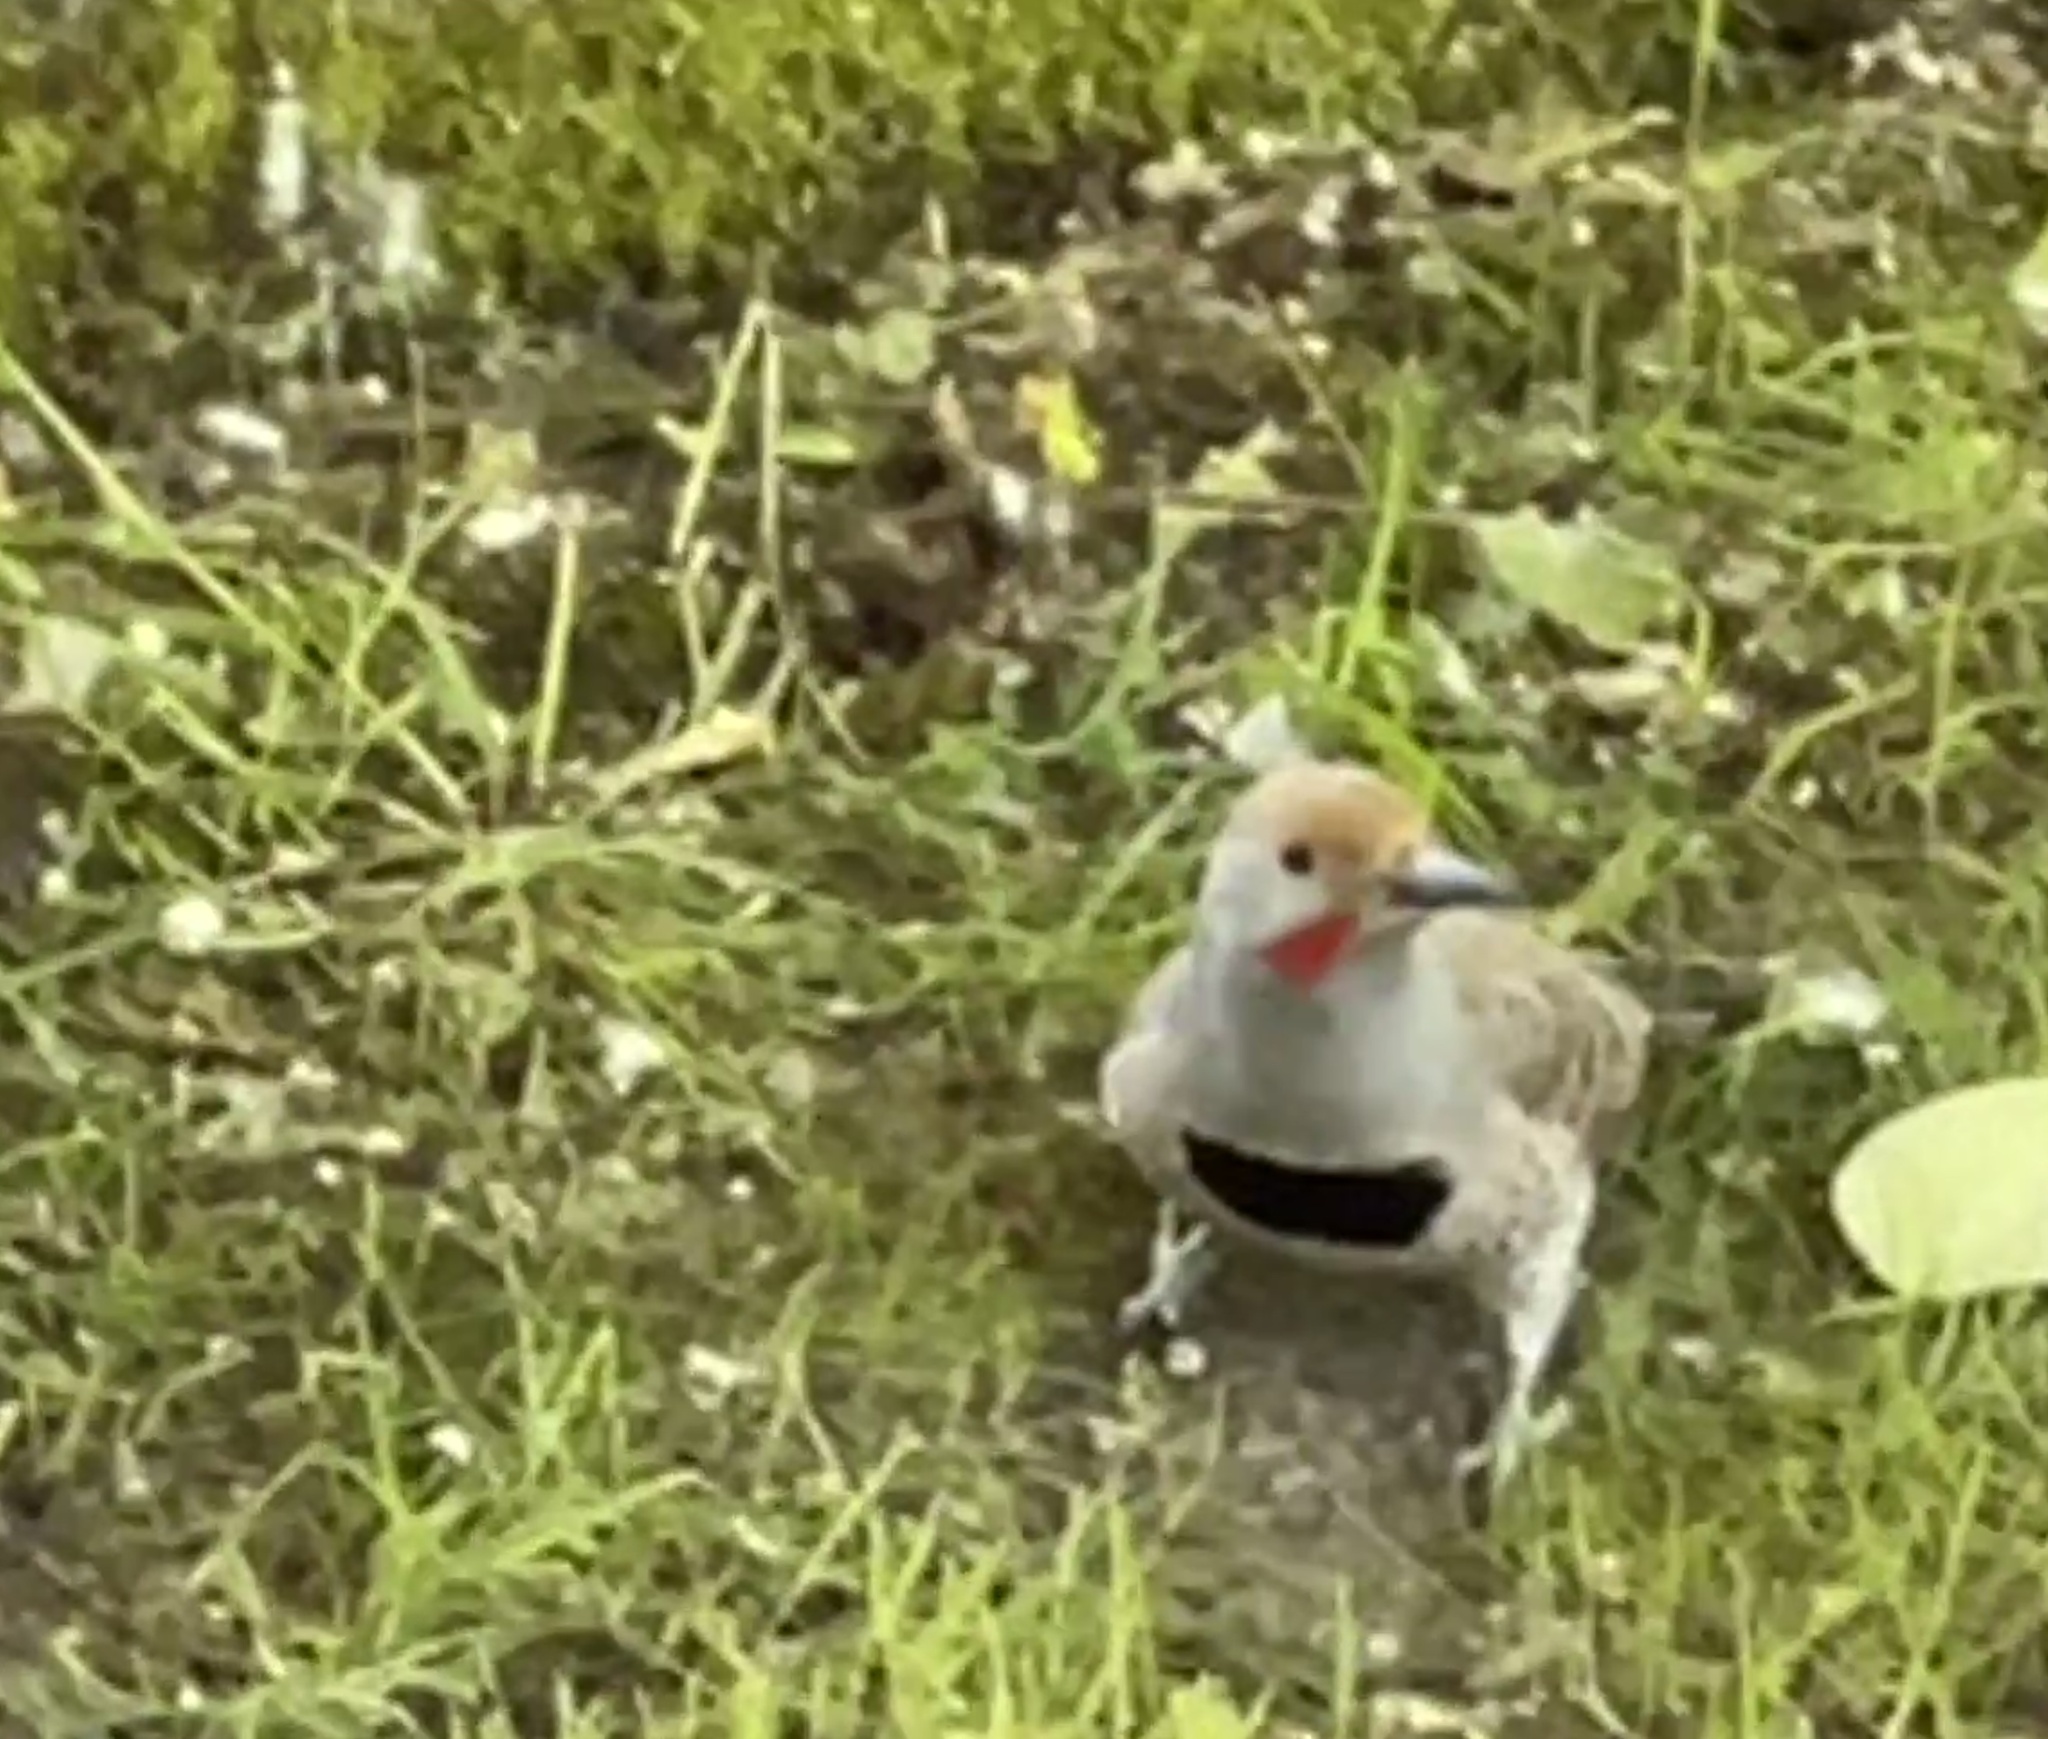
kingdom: Animalia
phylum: Chordata
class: Aves
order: Piciformes
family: Picidae
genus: Colaptes
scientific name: Colaptes auratus
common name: Northern flicker
